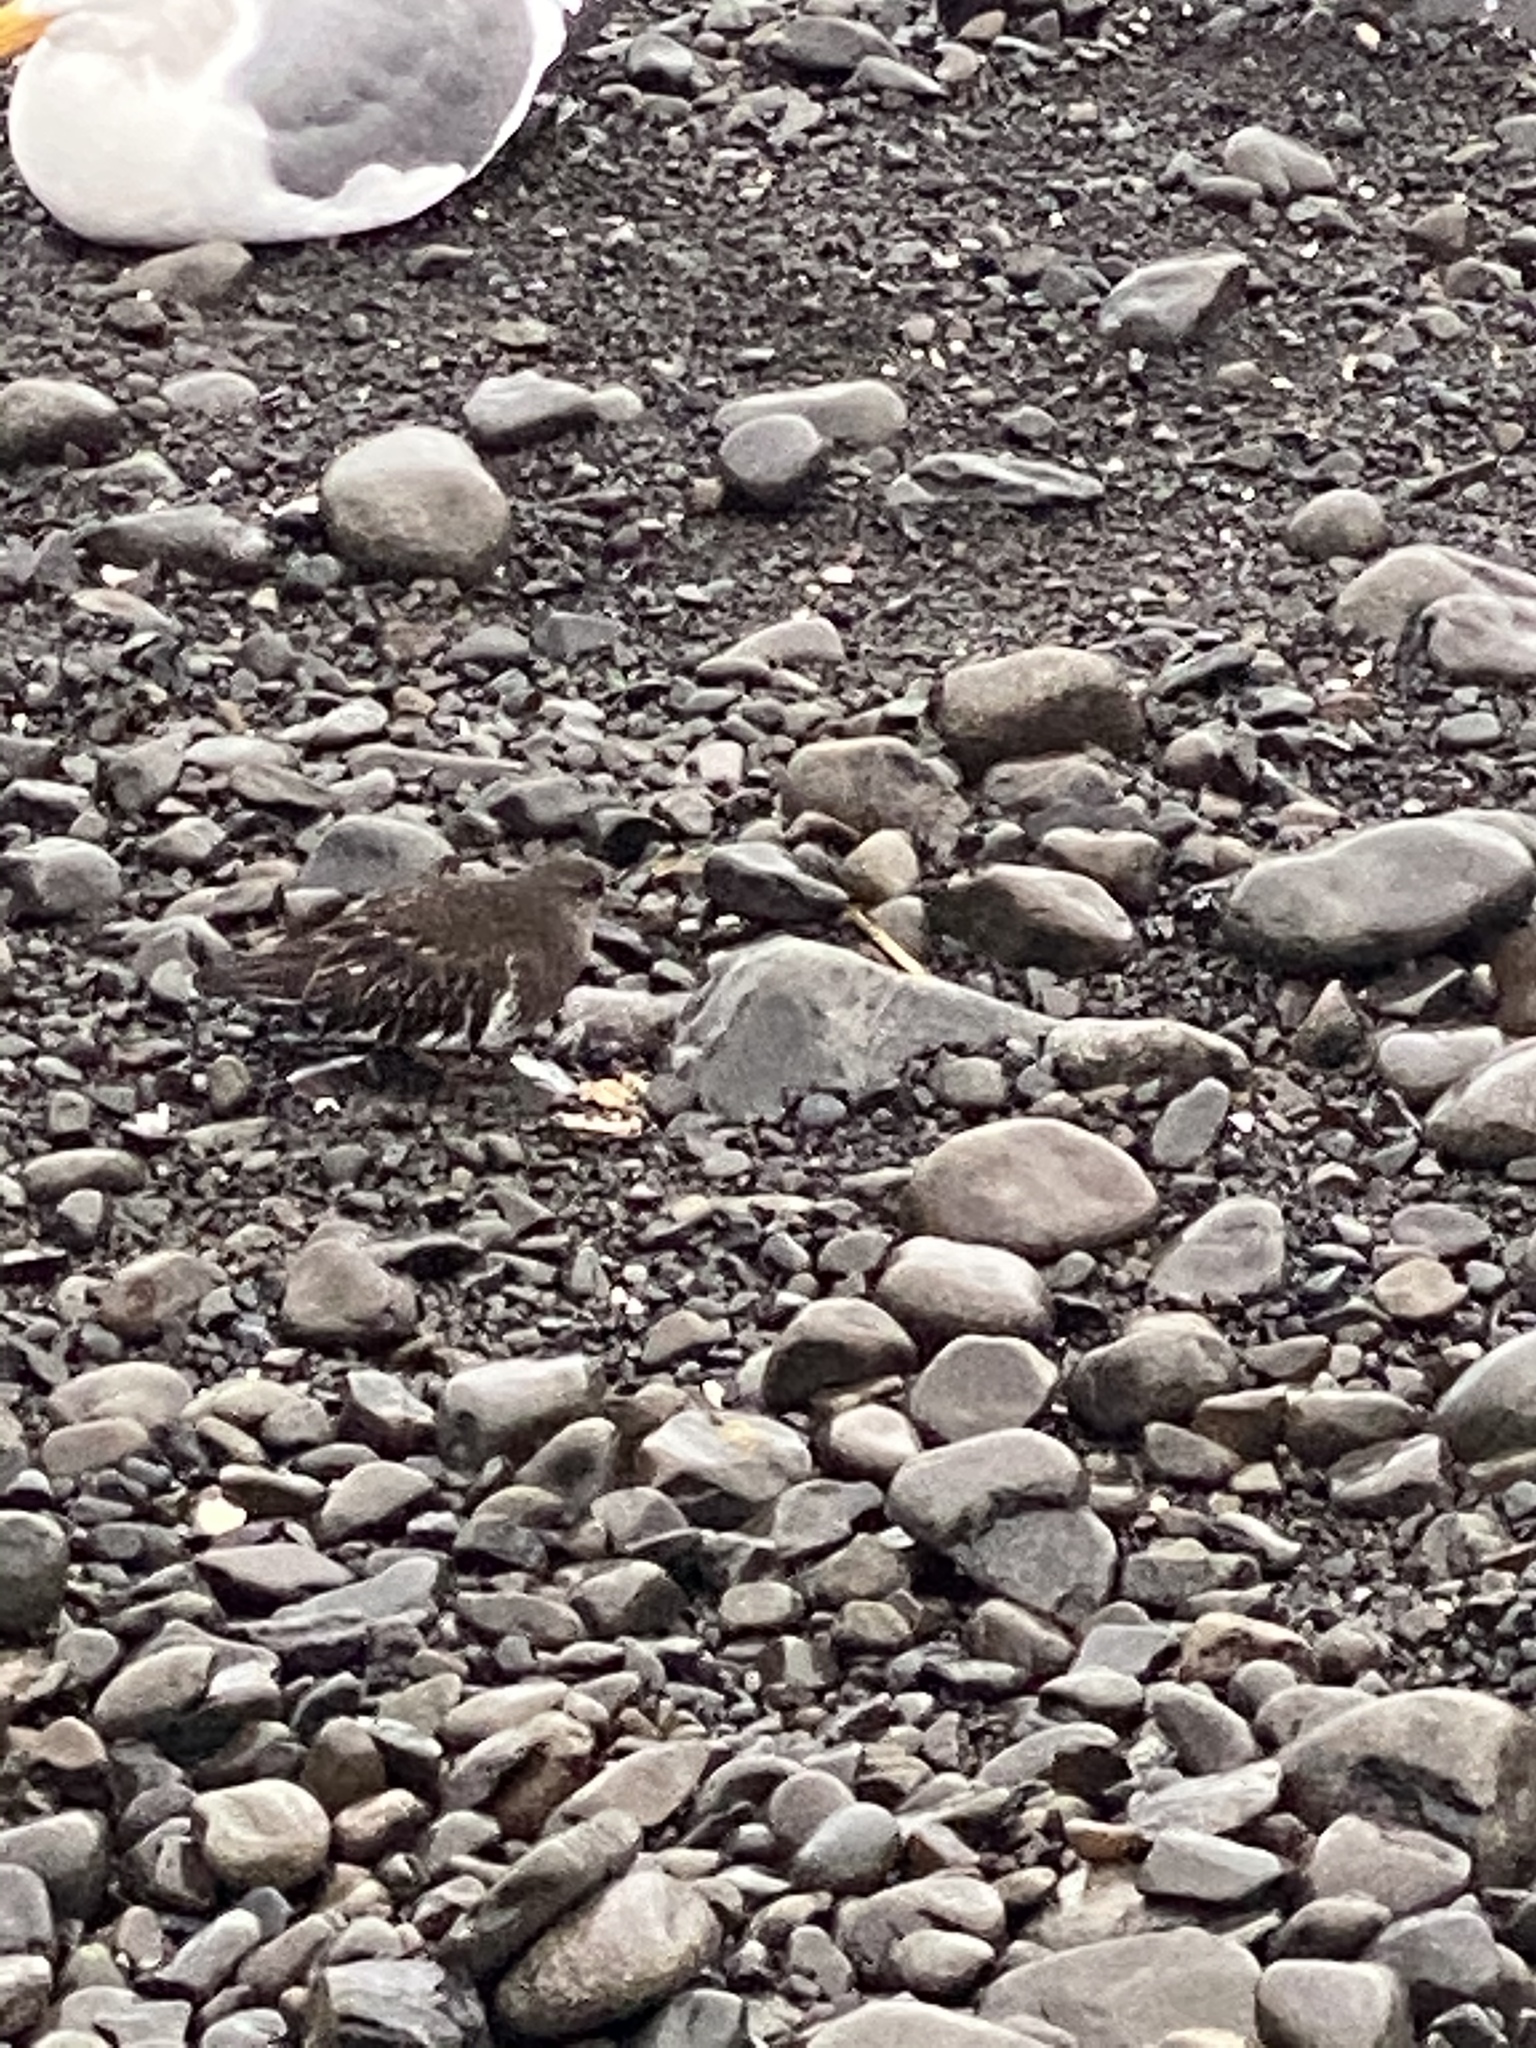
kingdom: Animalia
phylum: Chordata
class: Aves
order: Charadriiformes
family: Scolopacidae
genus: Arenaria
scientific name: Arenaria melanocephala
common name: Black turnstone
